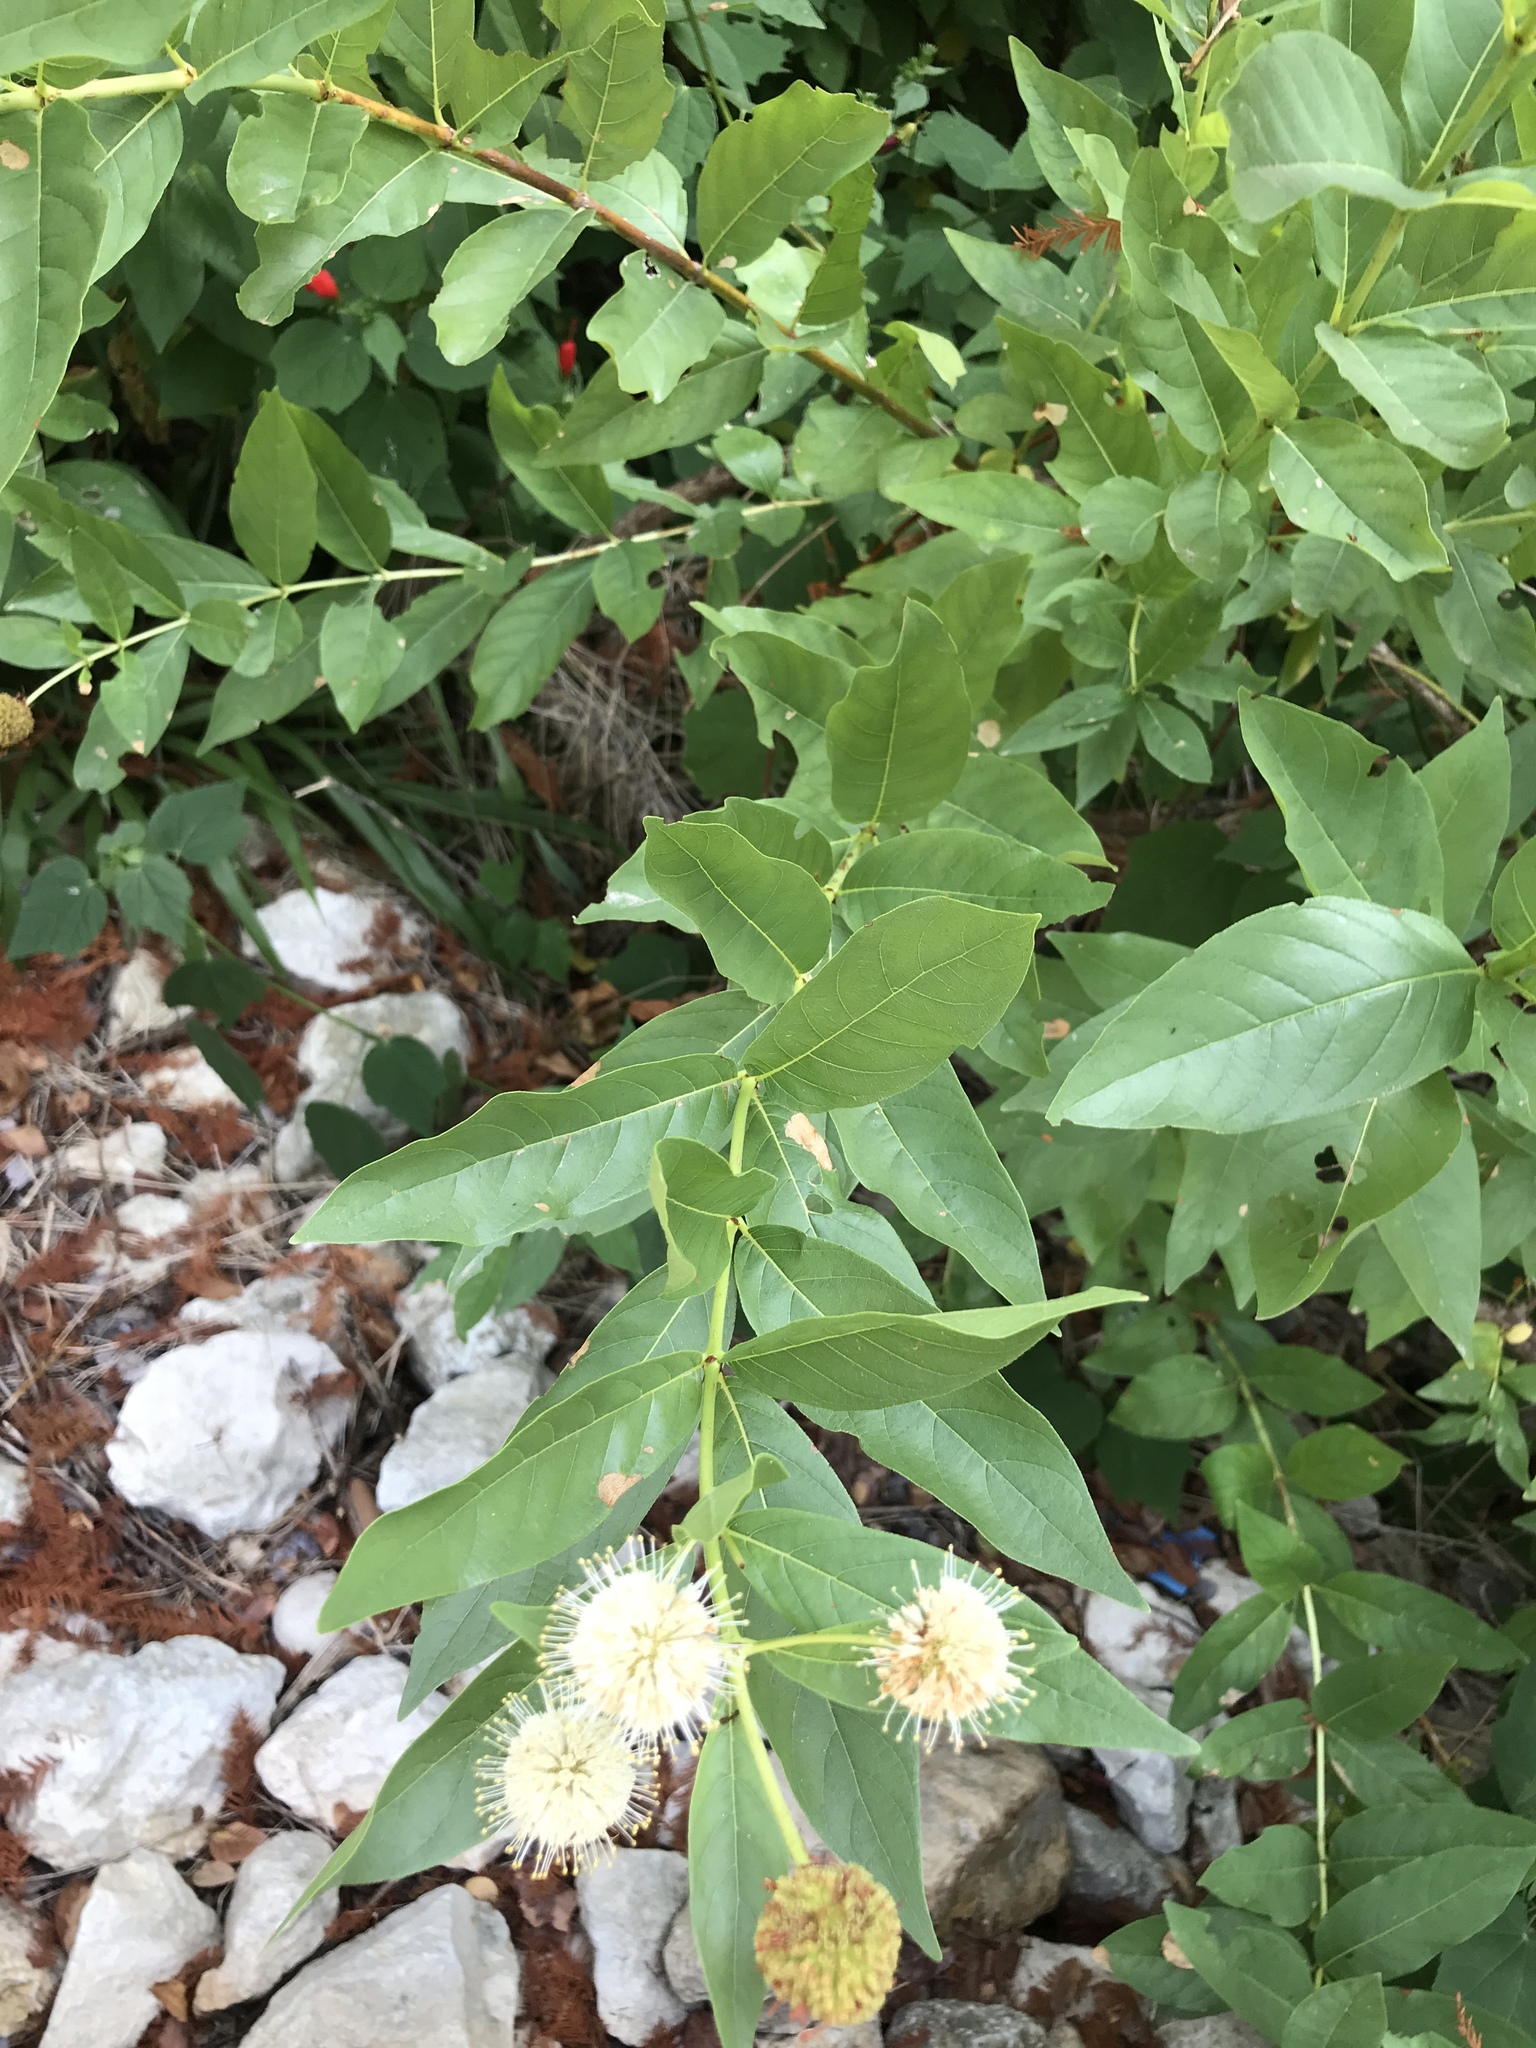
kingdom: Plantae
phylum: Tracheophyta
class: Magnoliopsida
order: Gentianales
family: Rubiaceae
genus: Cephalanthus
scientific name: Cephalanthus occidentalis
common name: Button-willow
